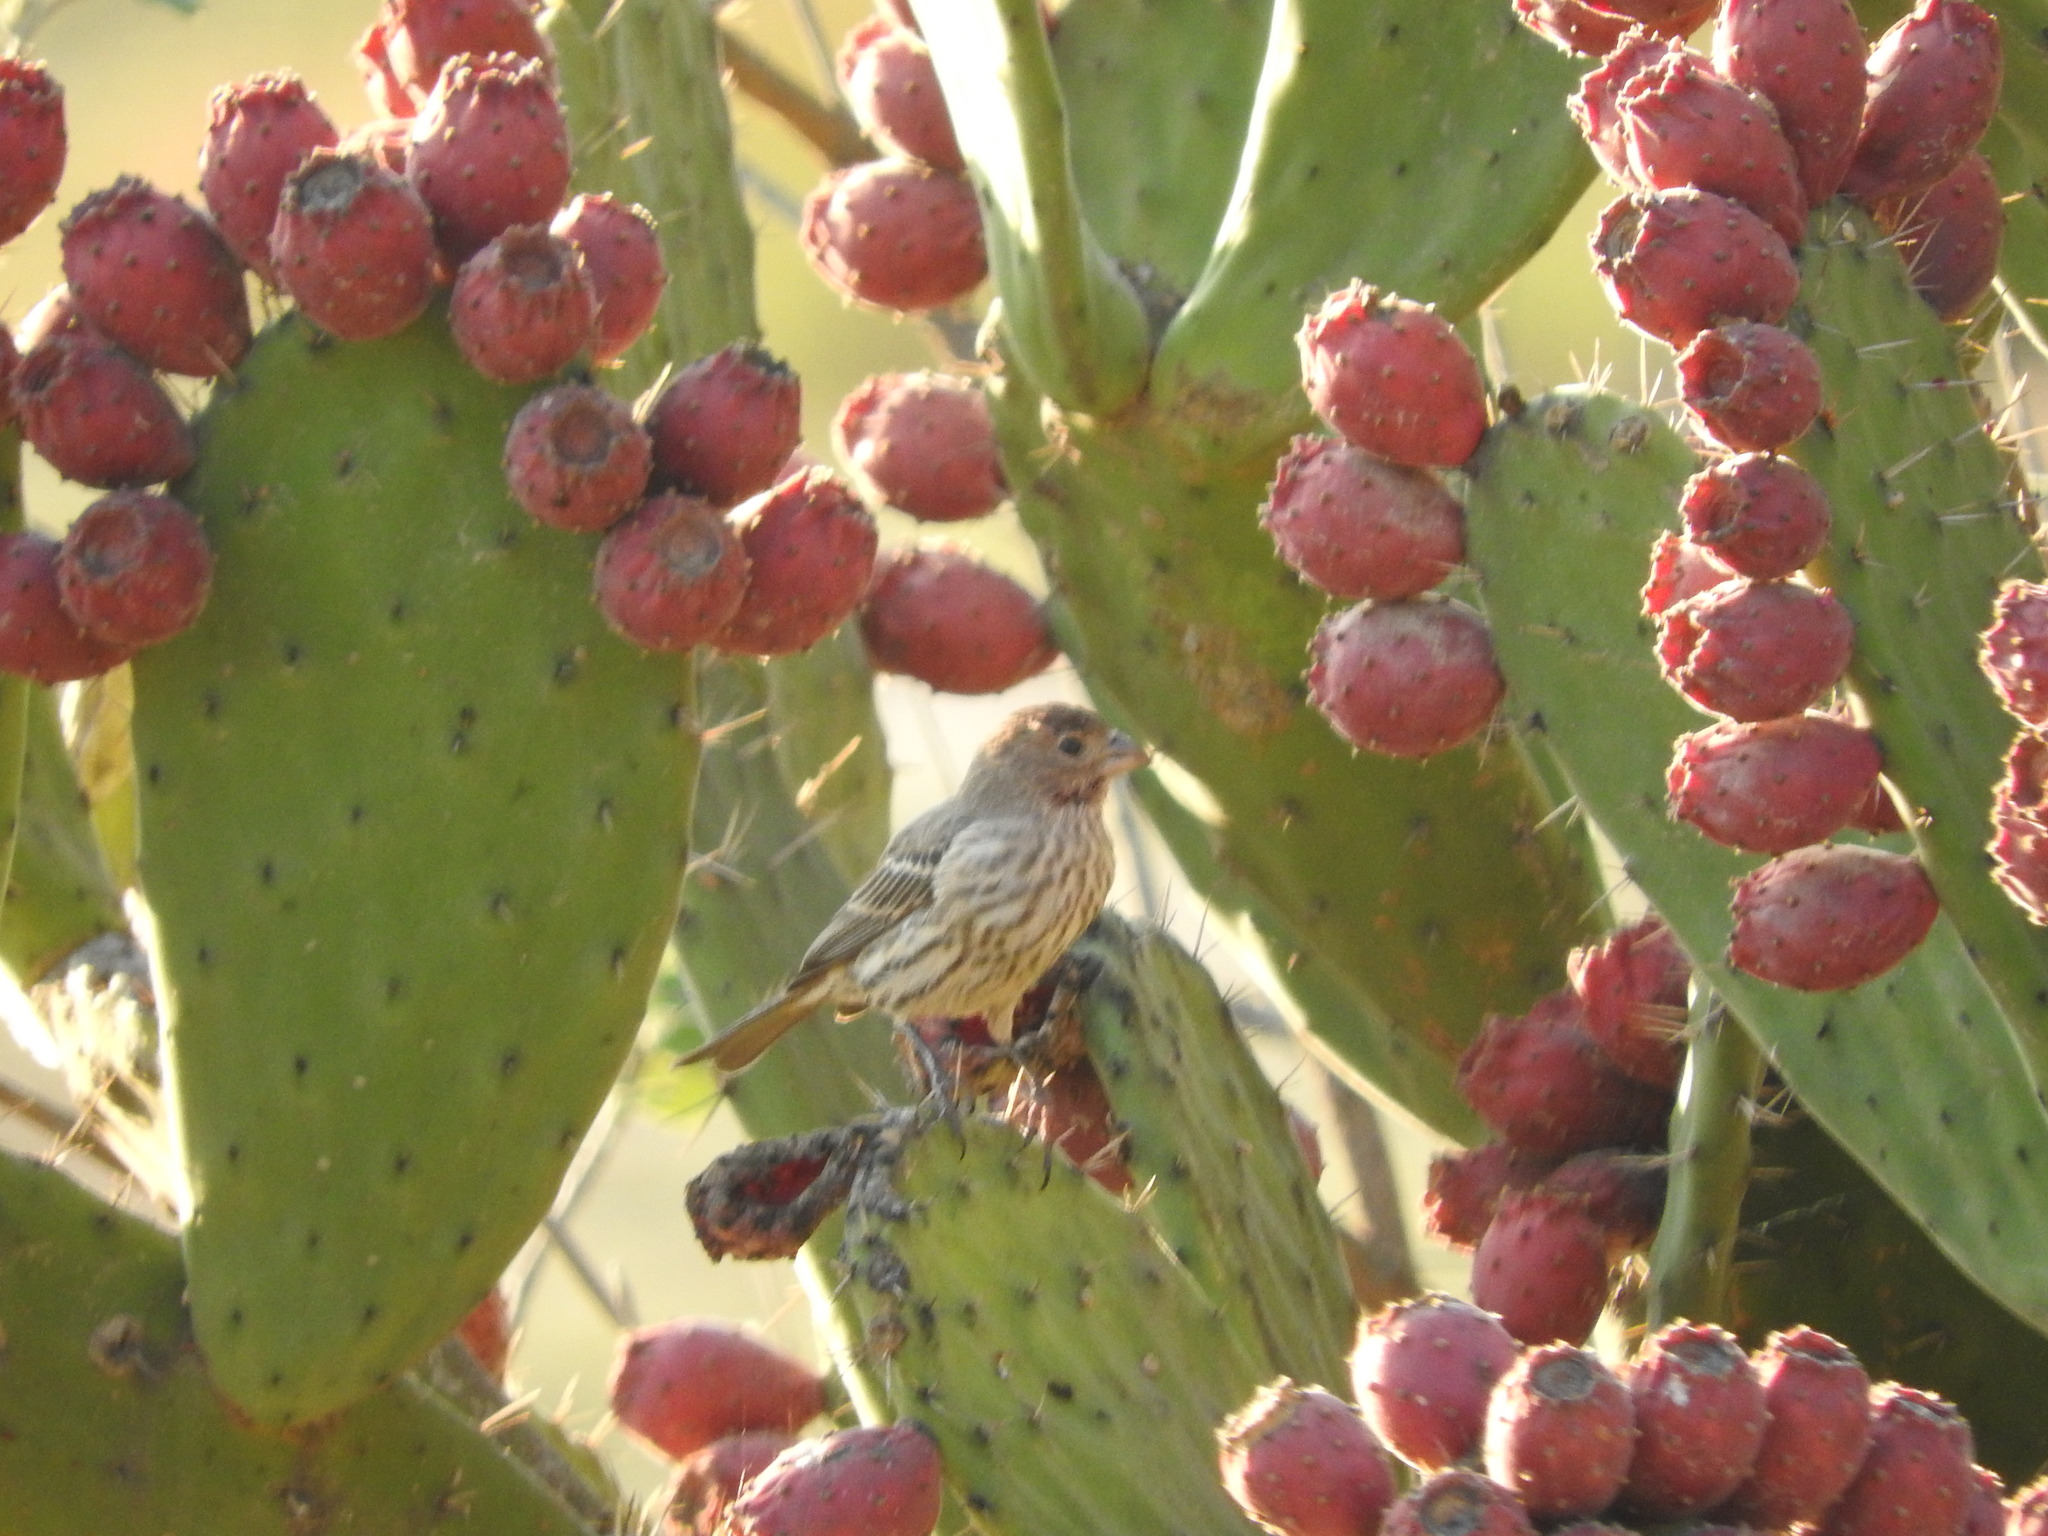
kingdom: Animalia
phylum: Chordata
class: Aves
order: Passeriformes
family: Fringillidae
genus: Haemorhous
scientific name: Haemorhous mexicanus
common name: House finch
